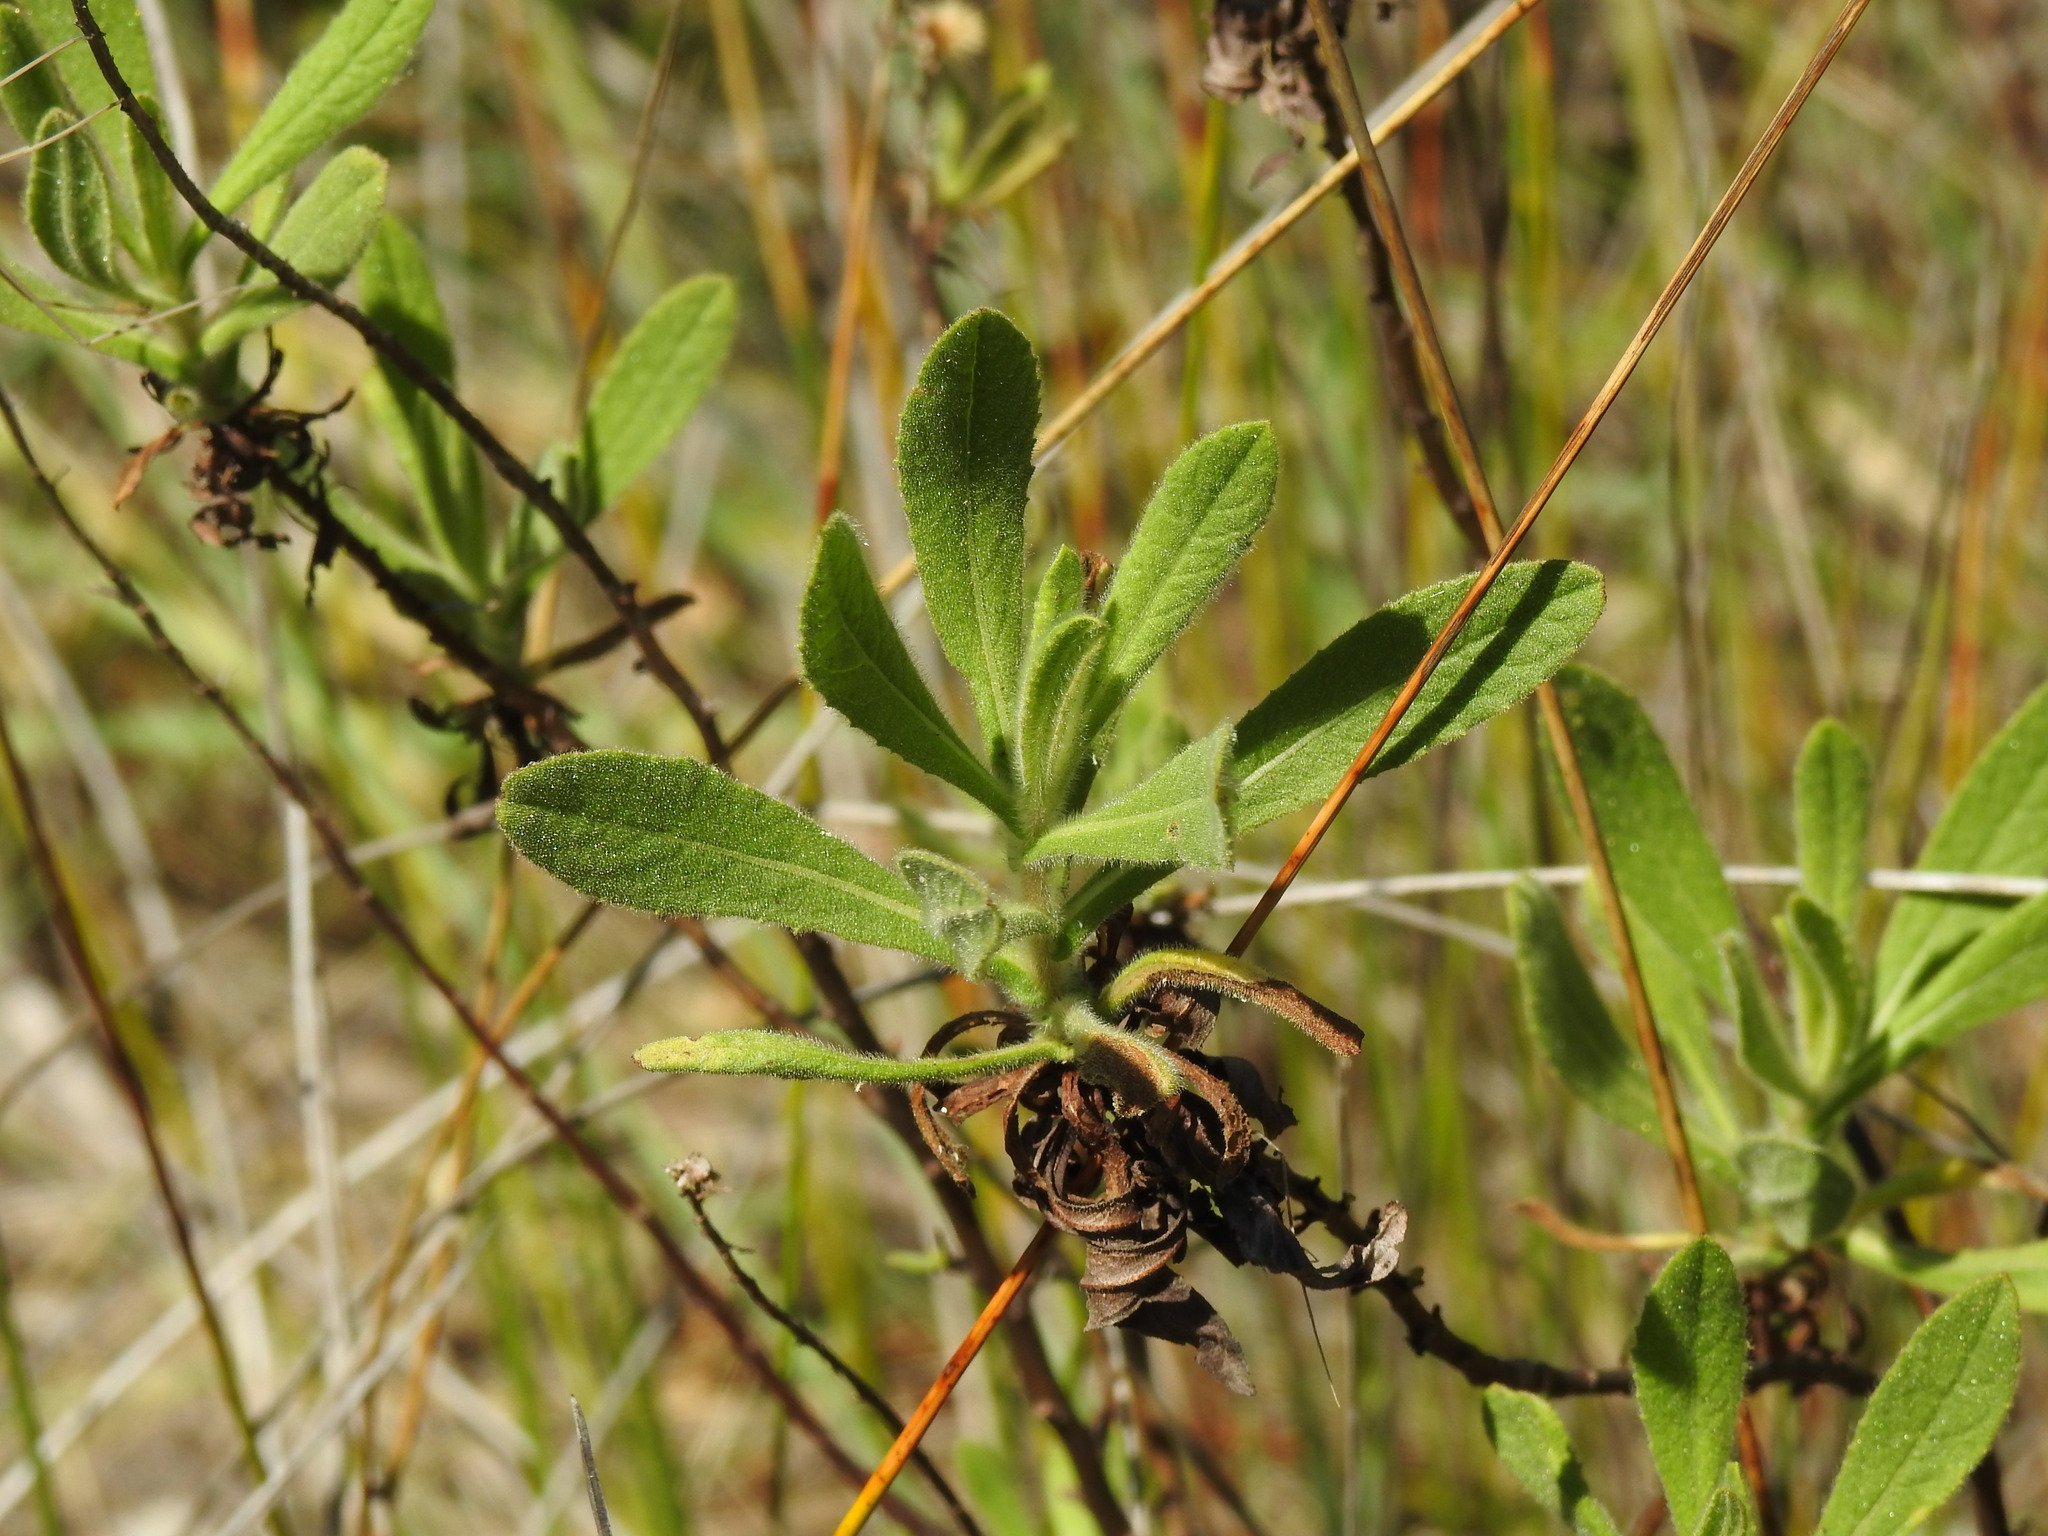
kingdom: Plantae
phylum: Tracheophyta
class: Magnoliopsida
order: Asterales
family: Asteraceae
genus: Dittrichia
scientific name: Dittrichia viscosa
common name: Woody fleabane
